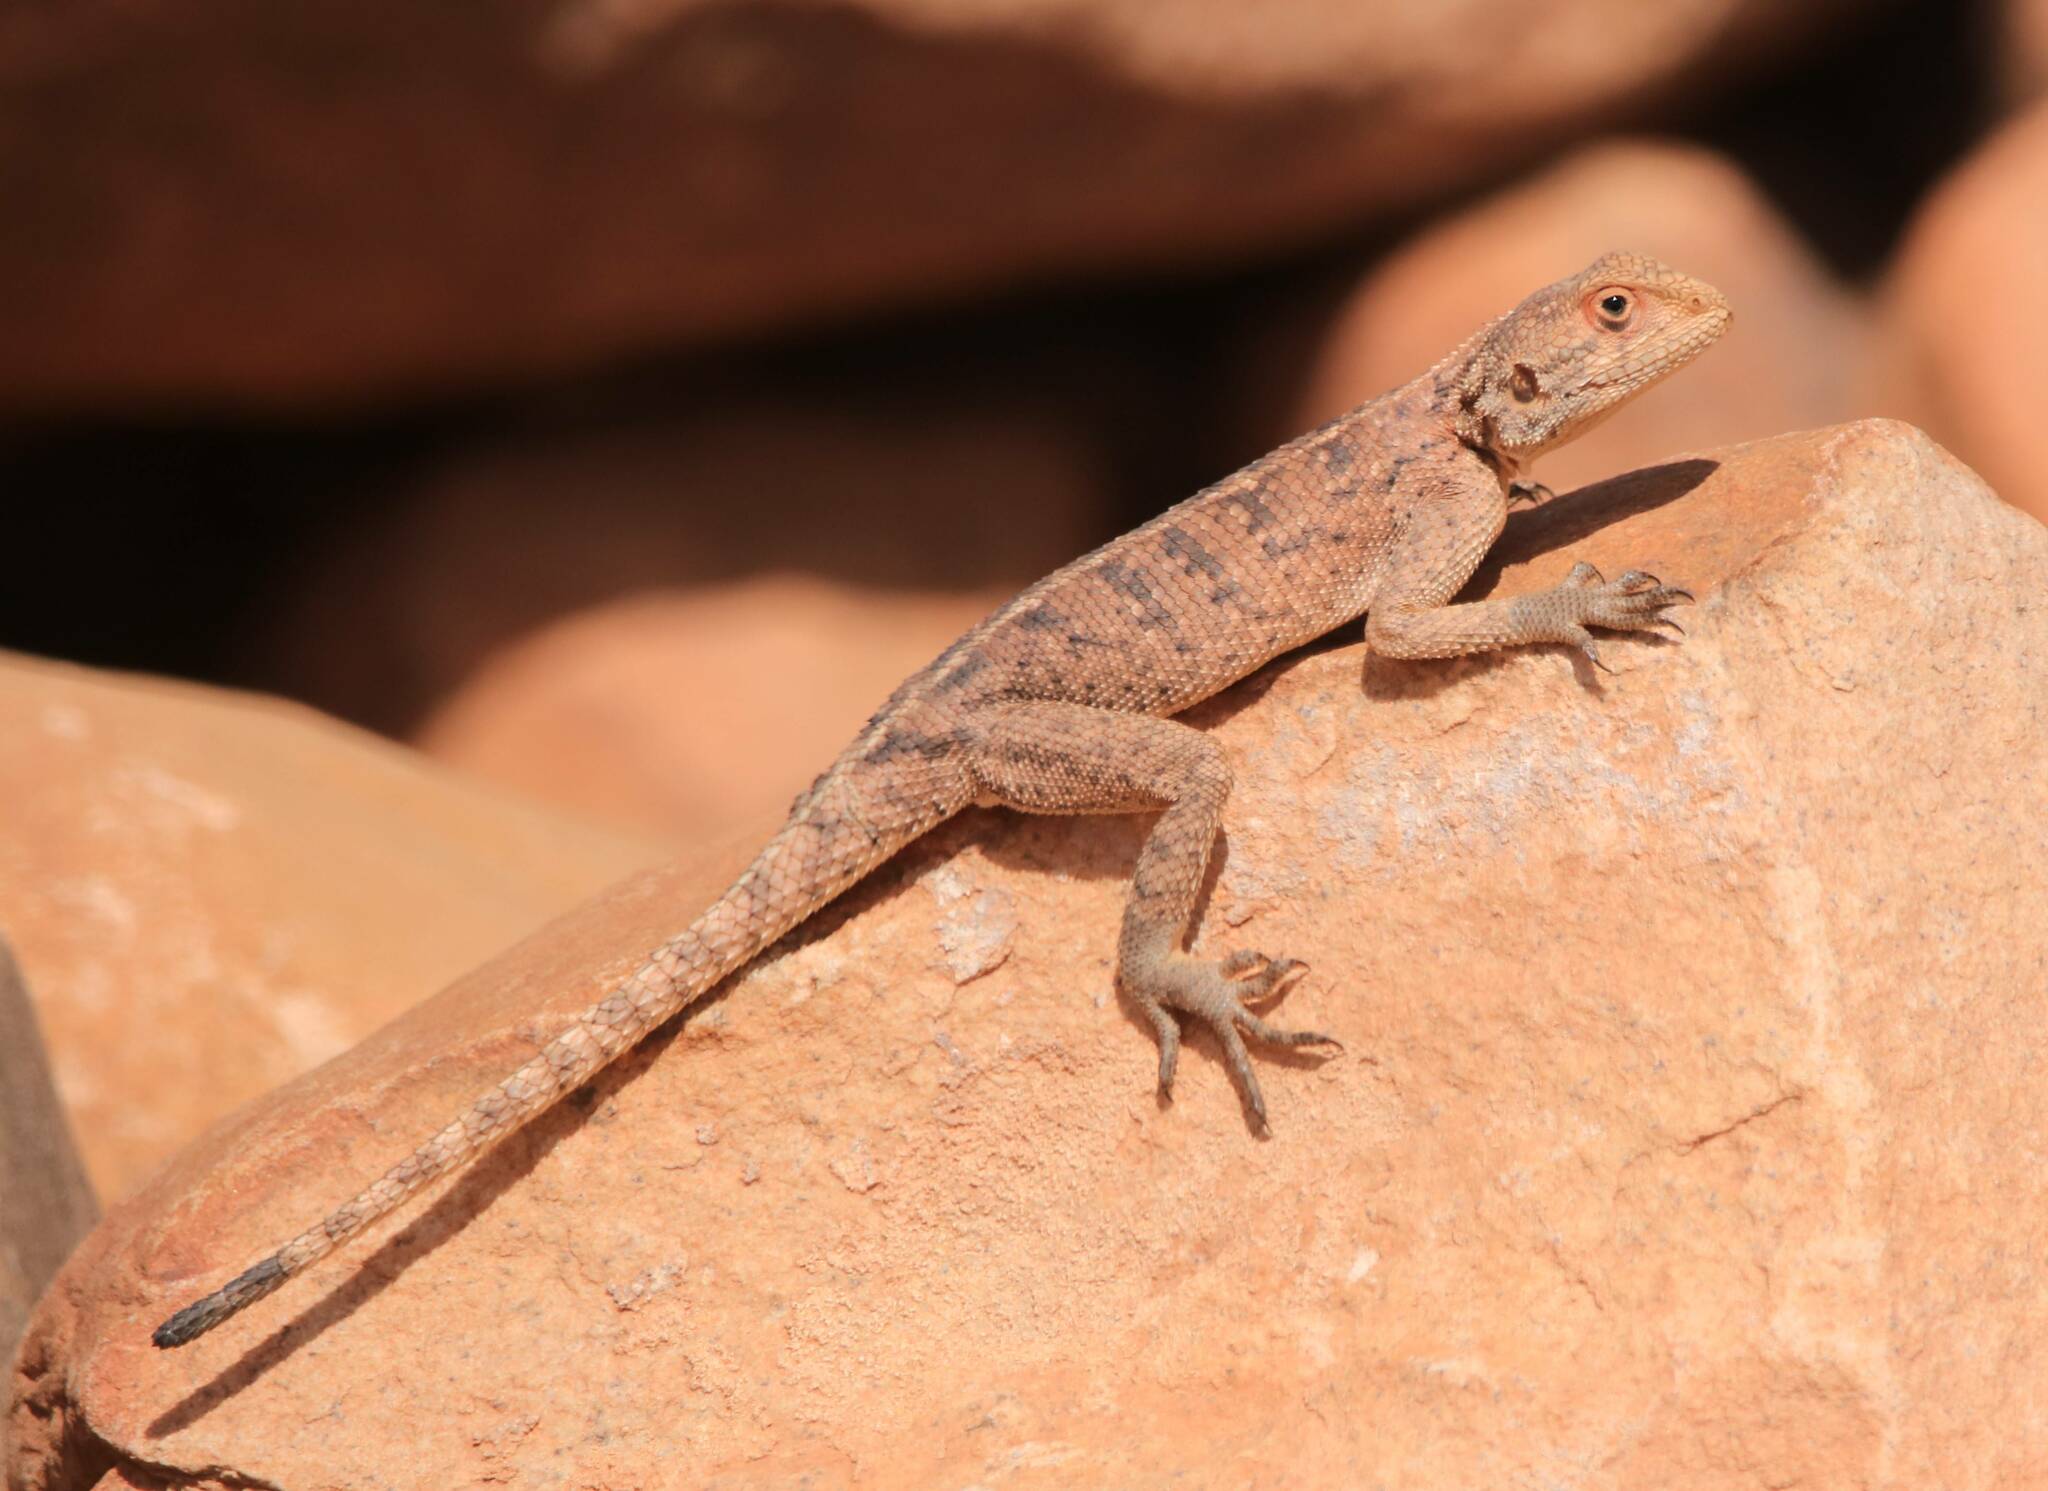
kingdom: Animalia
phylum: Chordata
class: Squamata
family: Agamidae
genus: Agama
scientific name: Agama impalearis
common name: Bibron's agama
